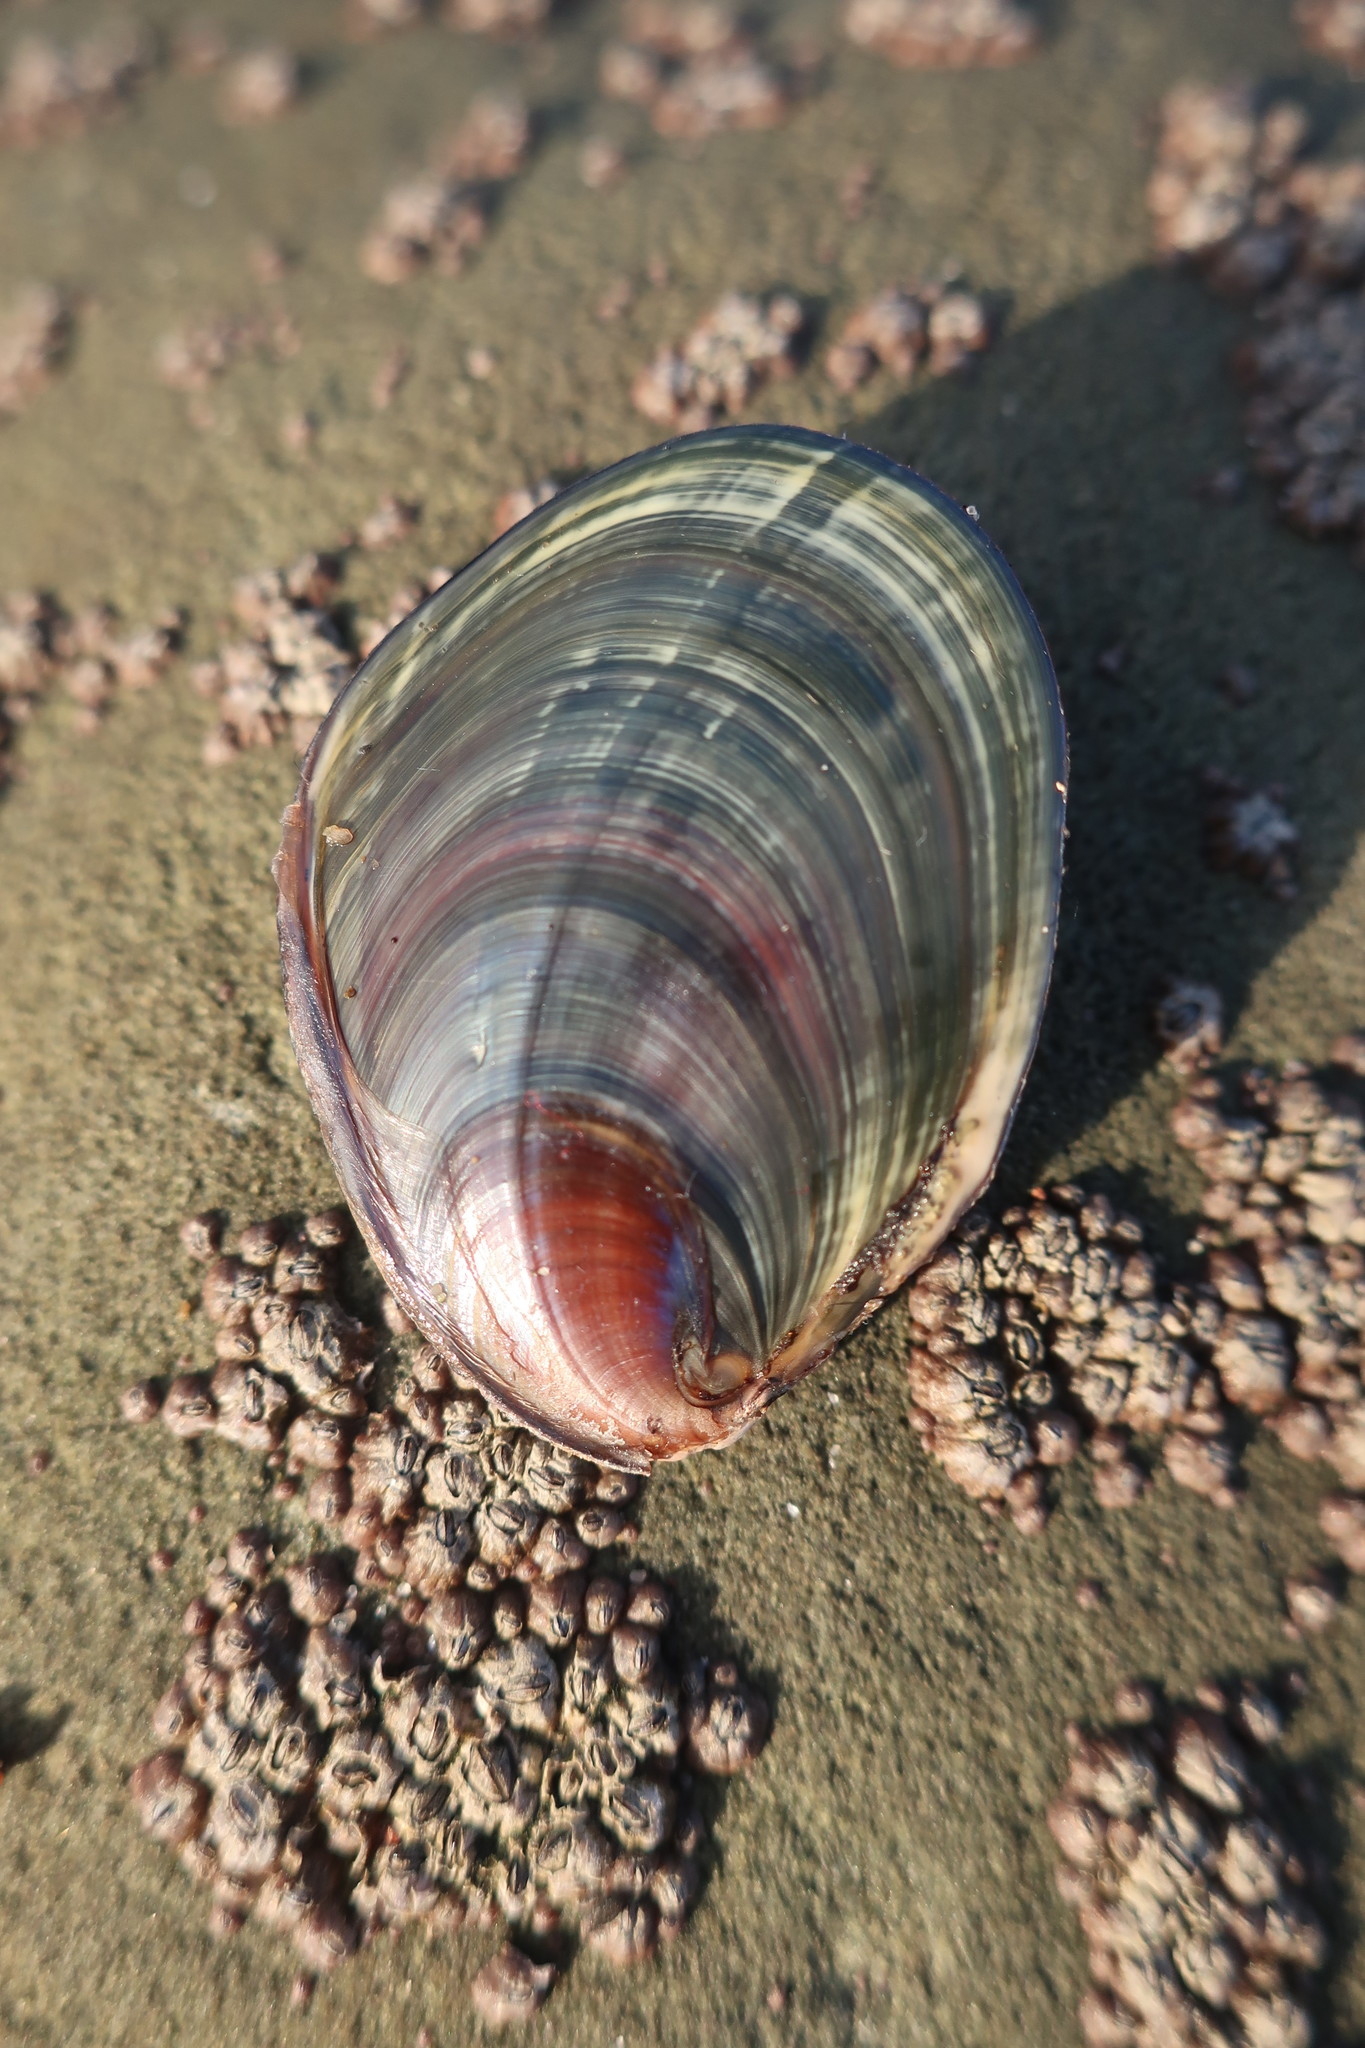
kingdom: Animalia
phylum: Mollusca
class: Gastropoda
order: Trochida
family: Turbinidae
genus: Megastraea
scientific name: Megastraea undosa
